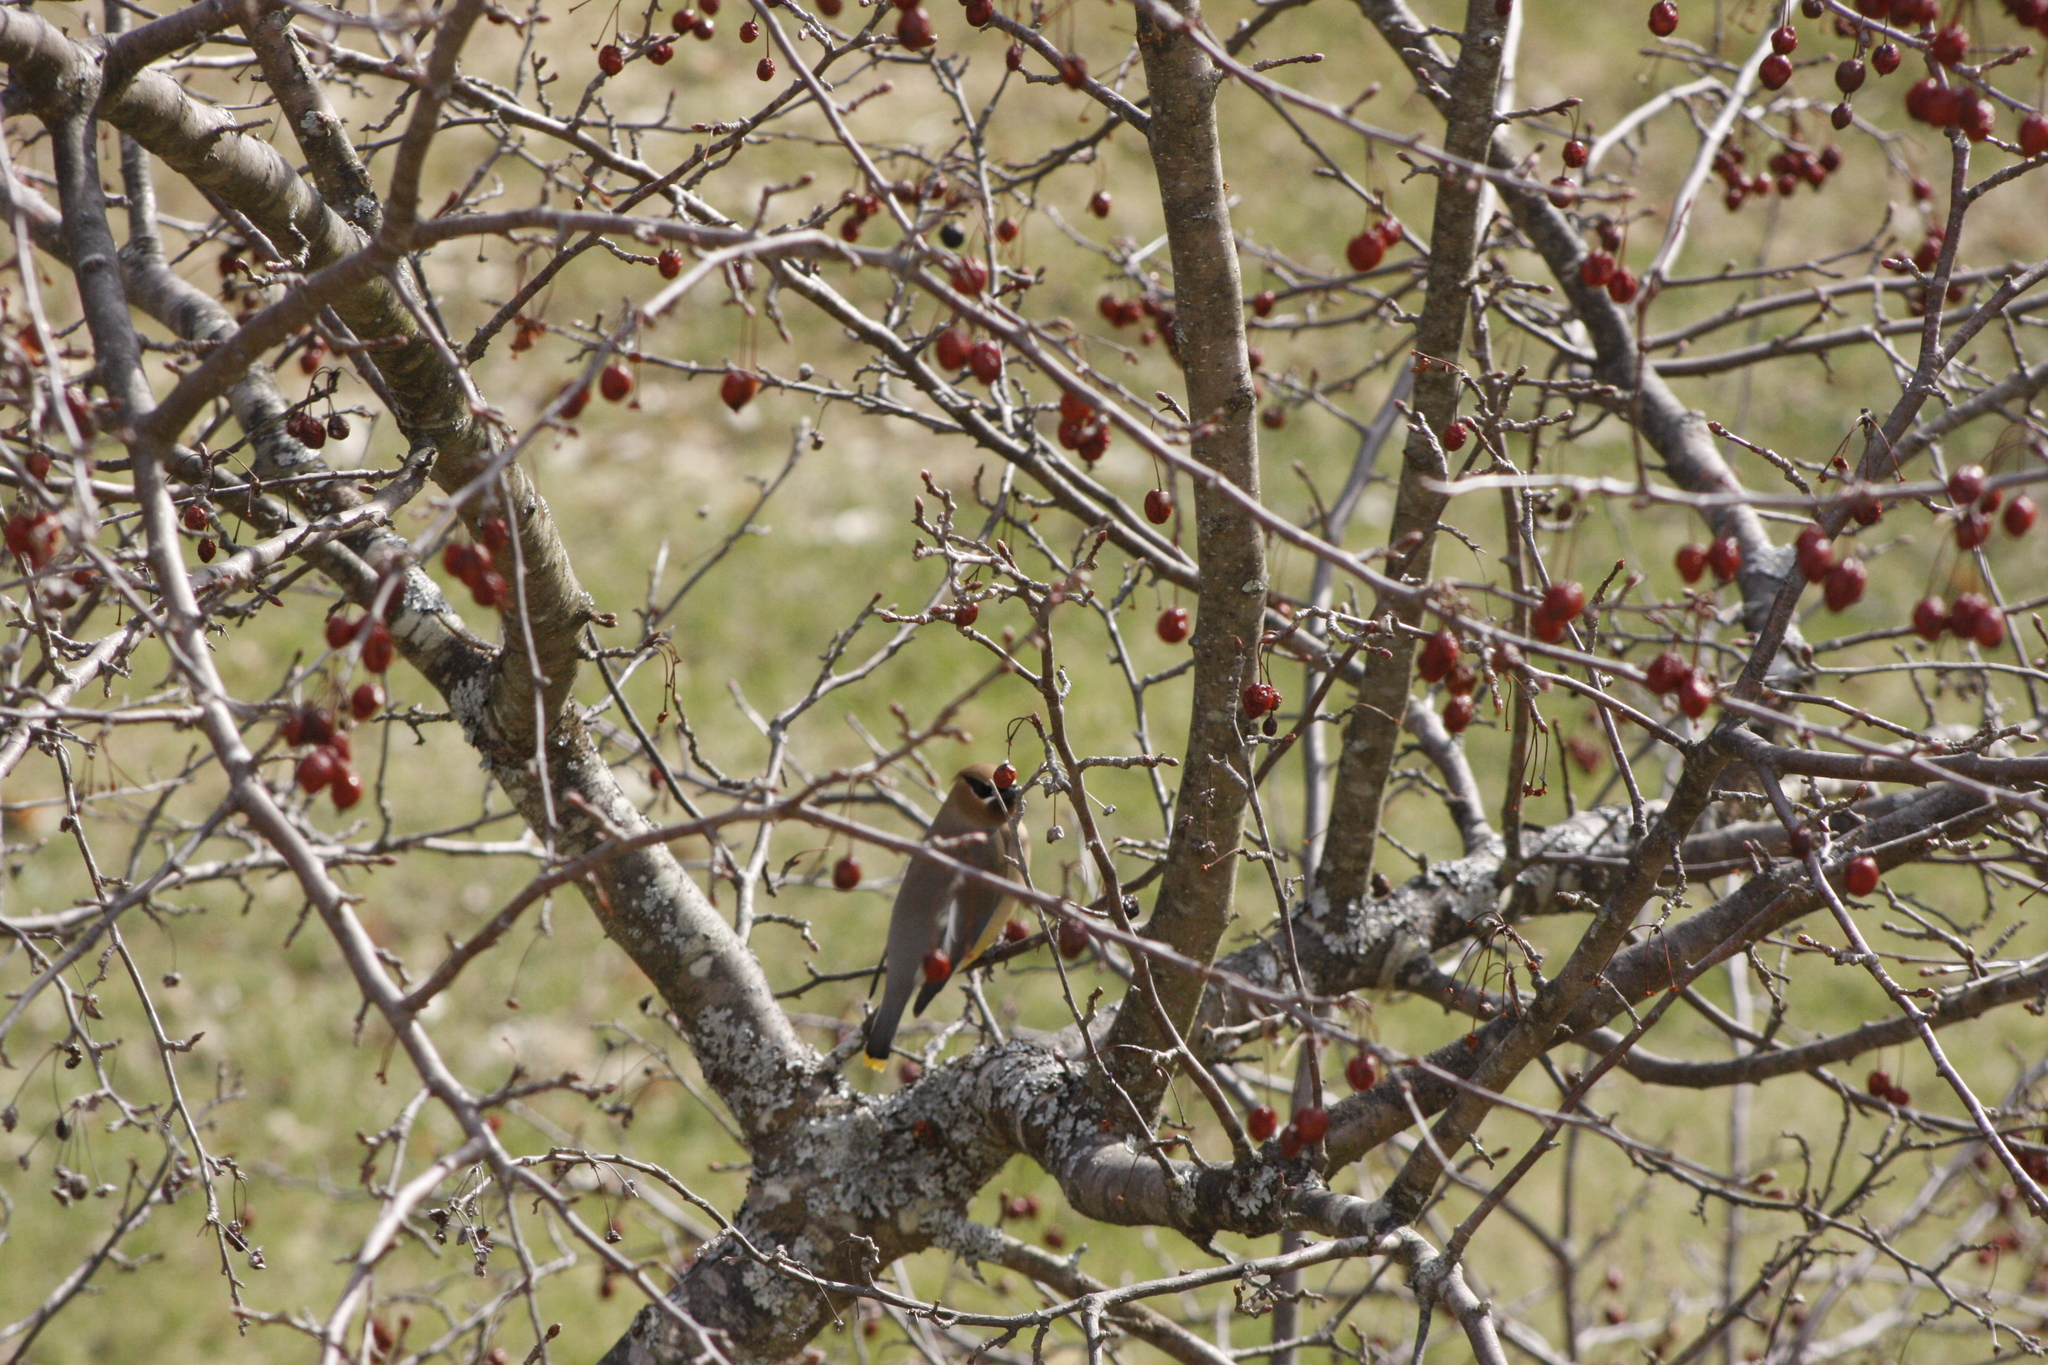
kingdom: Animalia
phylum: Chordata
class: Aves
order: Passeriformes
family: Bombycillidae
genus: Bombycilla
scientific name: Bombycilla cedrorum
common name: Cedar waxwing
